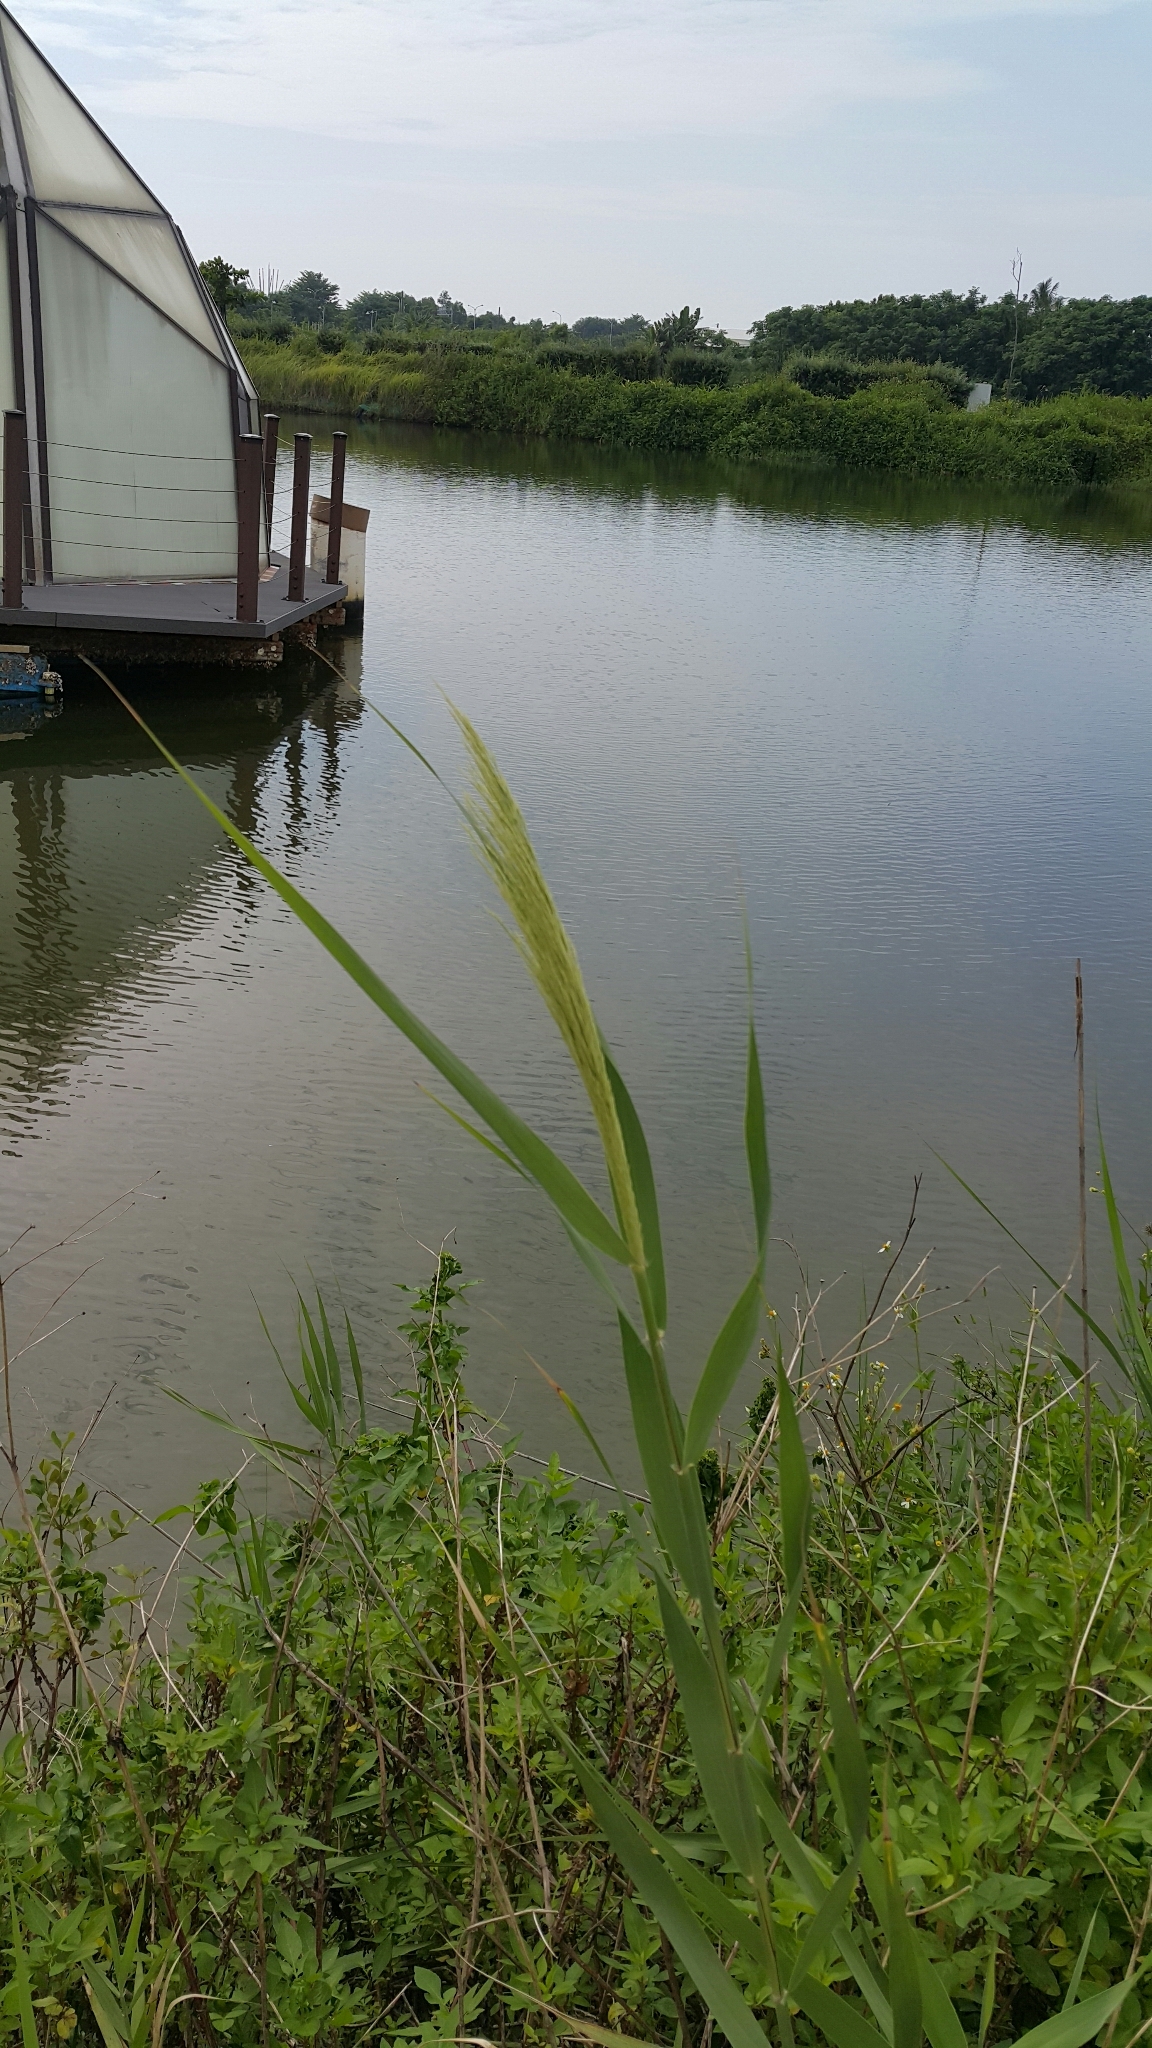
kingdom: Plantae
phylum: Tracheophyta
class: Liliopsida
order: Poales
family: Poaceae
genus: Phragmites
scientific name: Phragmites australis
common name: Common reed
